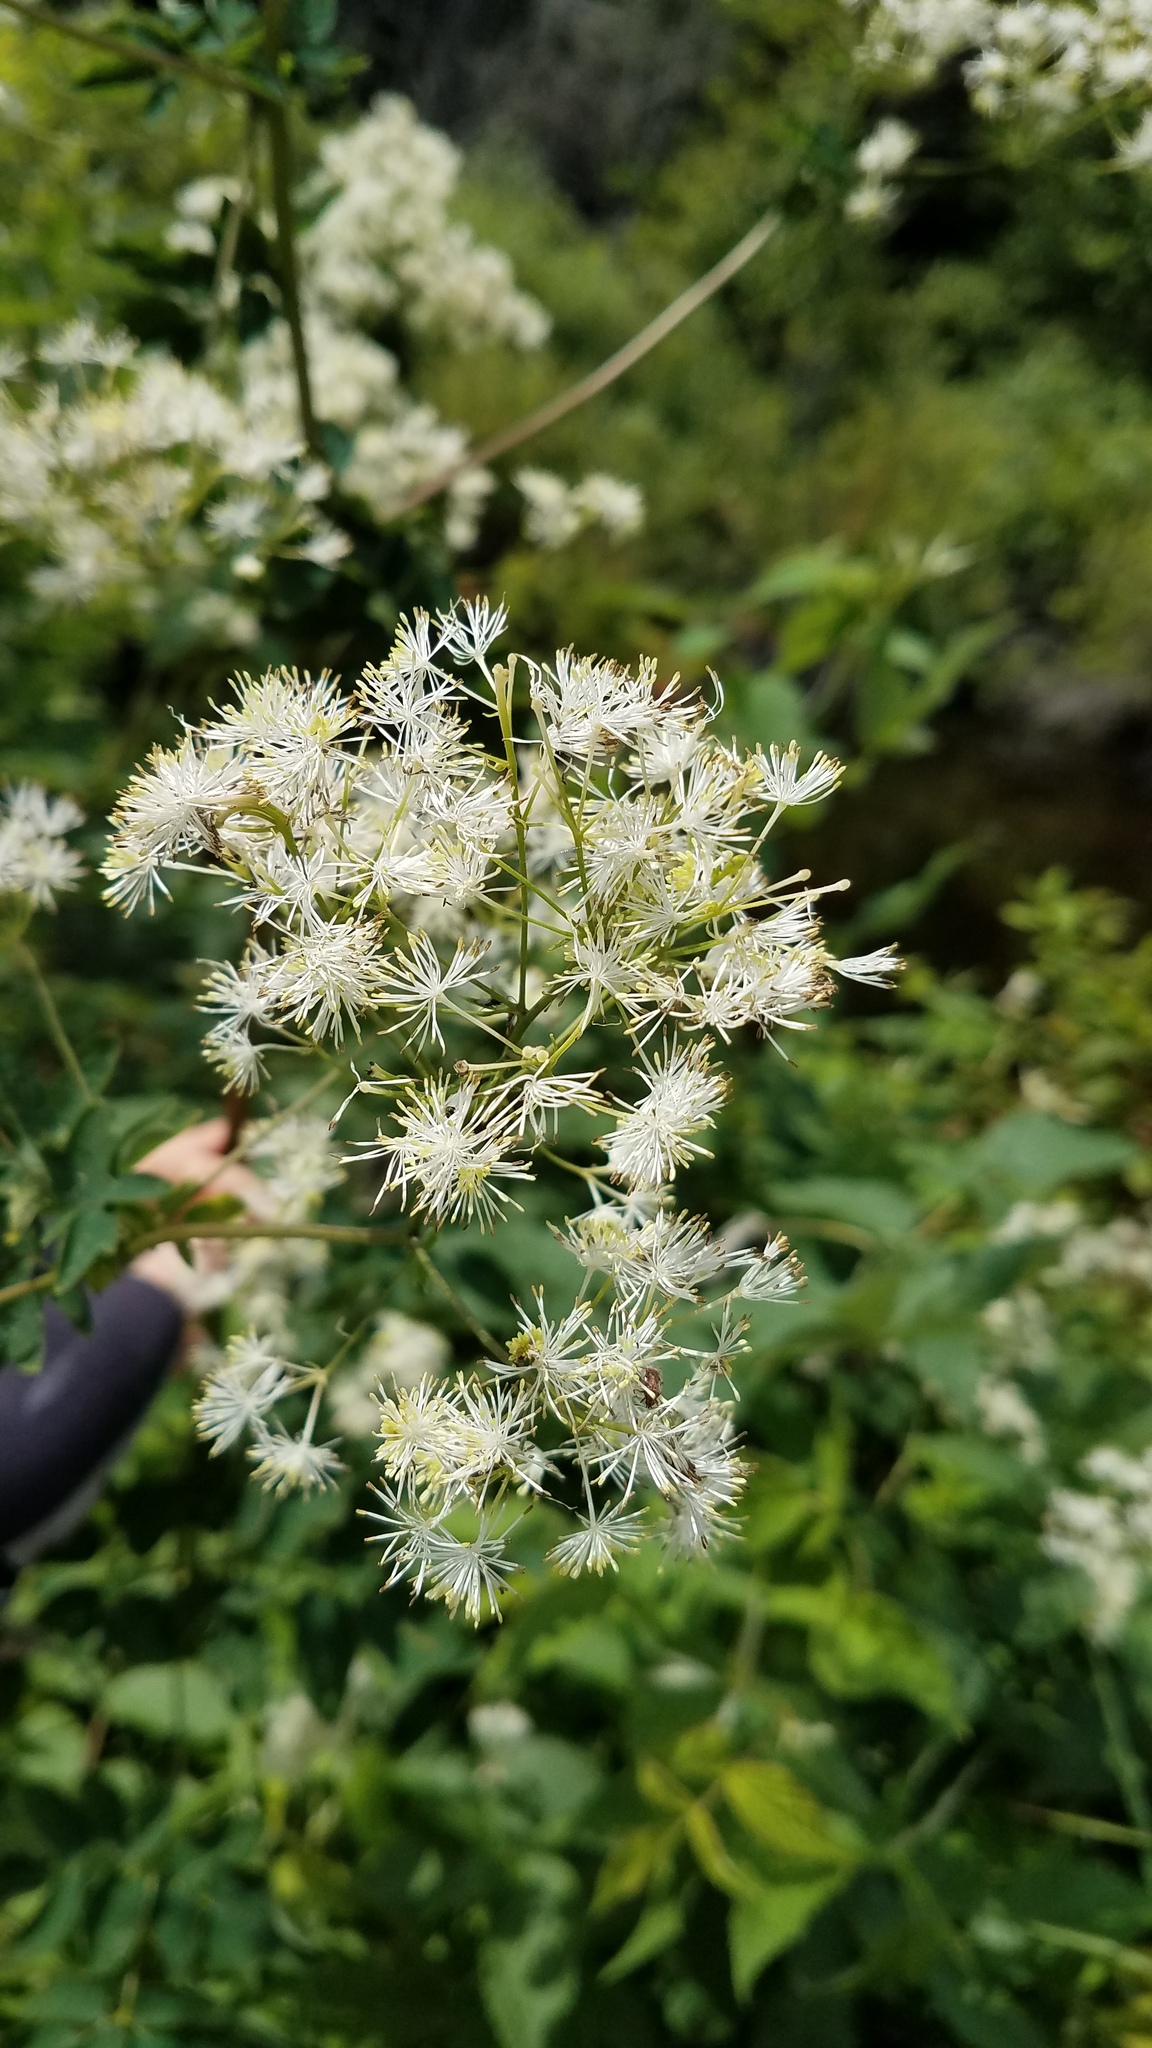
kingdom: Plantae
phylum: Tracheophyta
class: Magnoliopsida
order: Ranunculales
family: Ranunculaceae
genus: Thalictrum
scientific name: Thalictrum pubescens
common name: King-of-the-meadow
